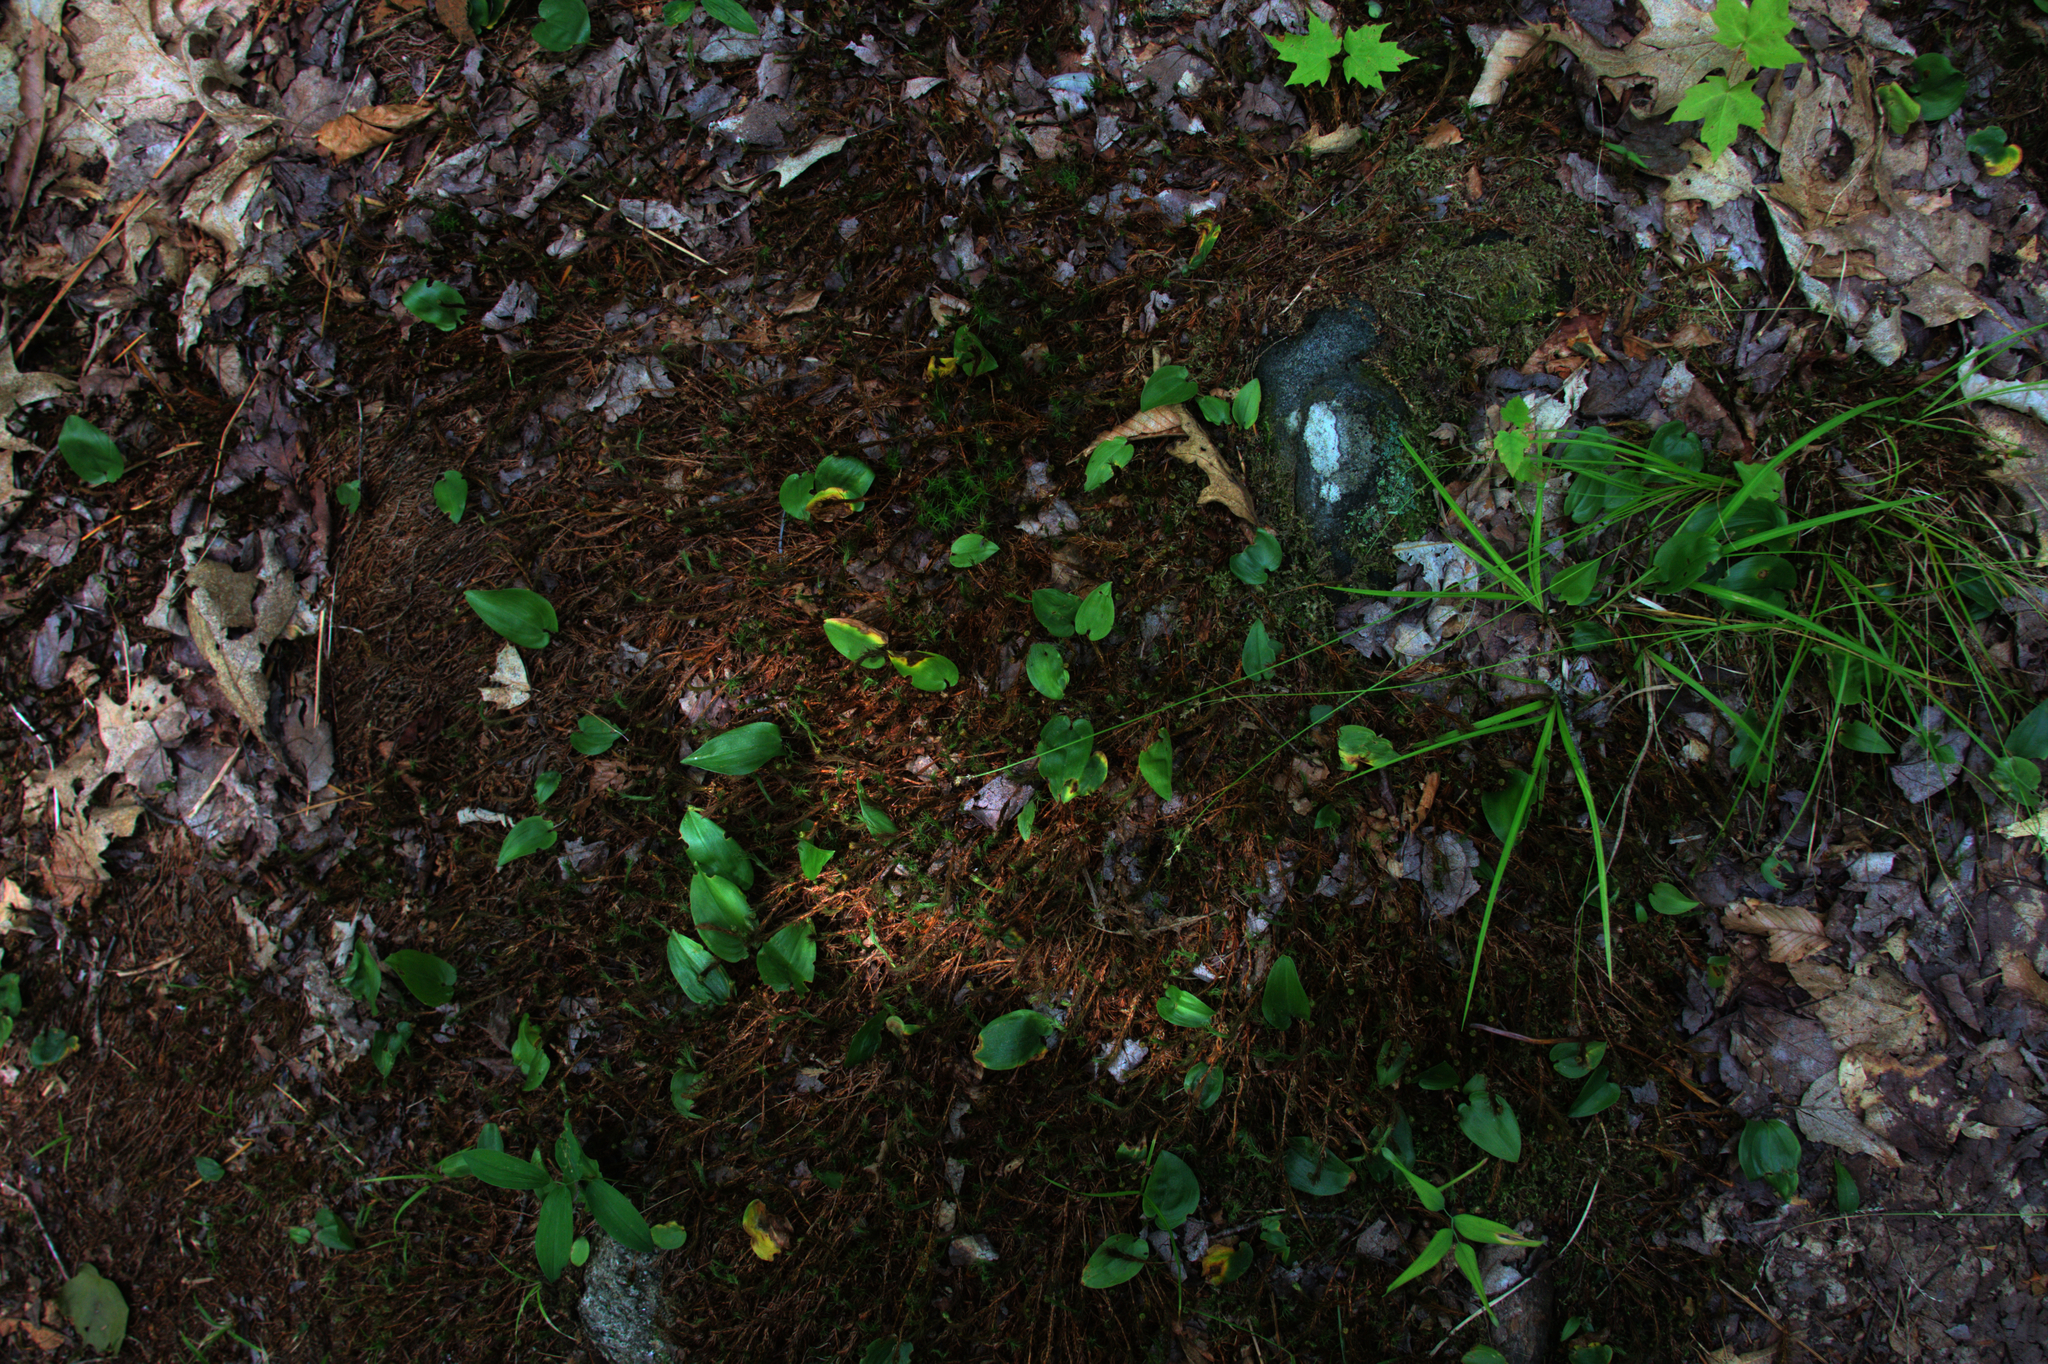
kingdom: Plantae
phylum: Tracheophyta
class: Liliopsida
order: Asparagales
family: Asparagaceae
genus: Maianthemum
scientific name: Maianthemum canadense
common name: False lily-of-the-valley
